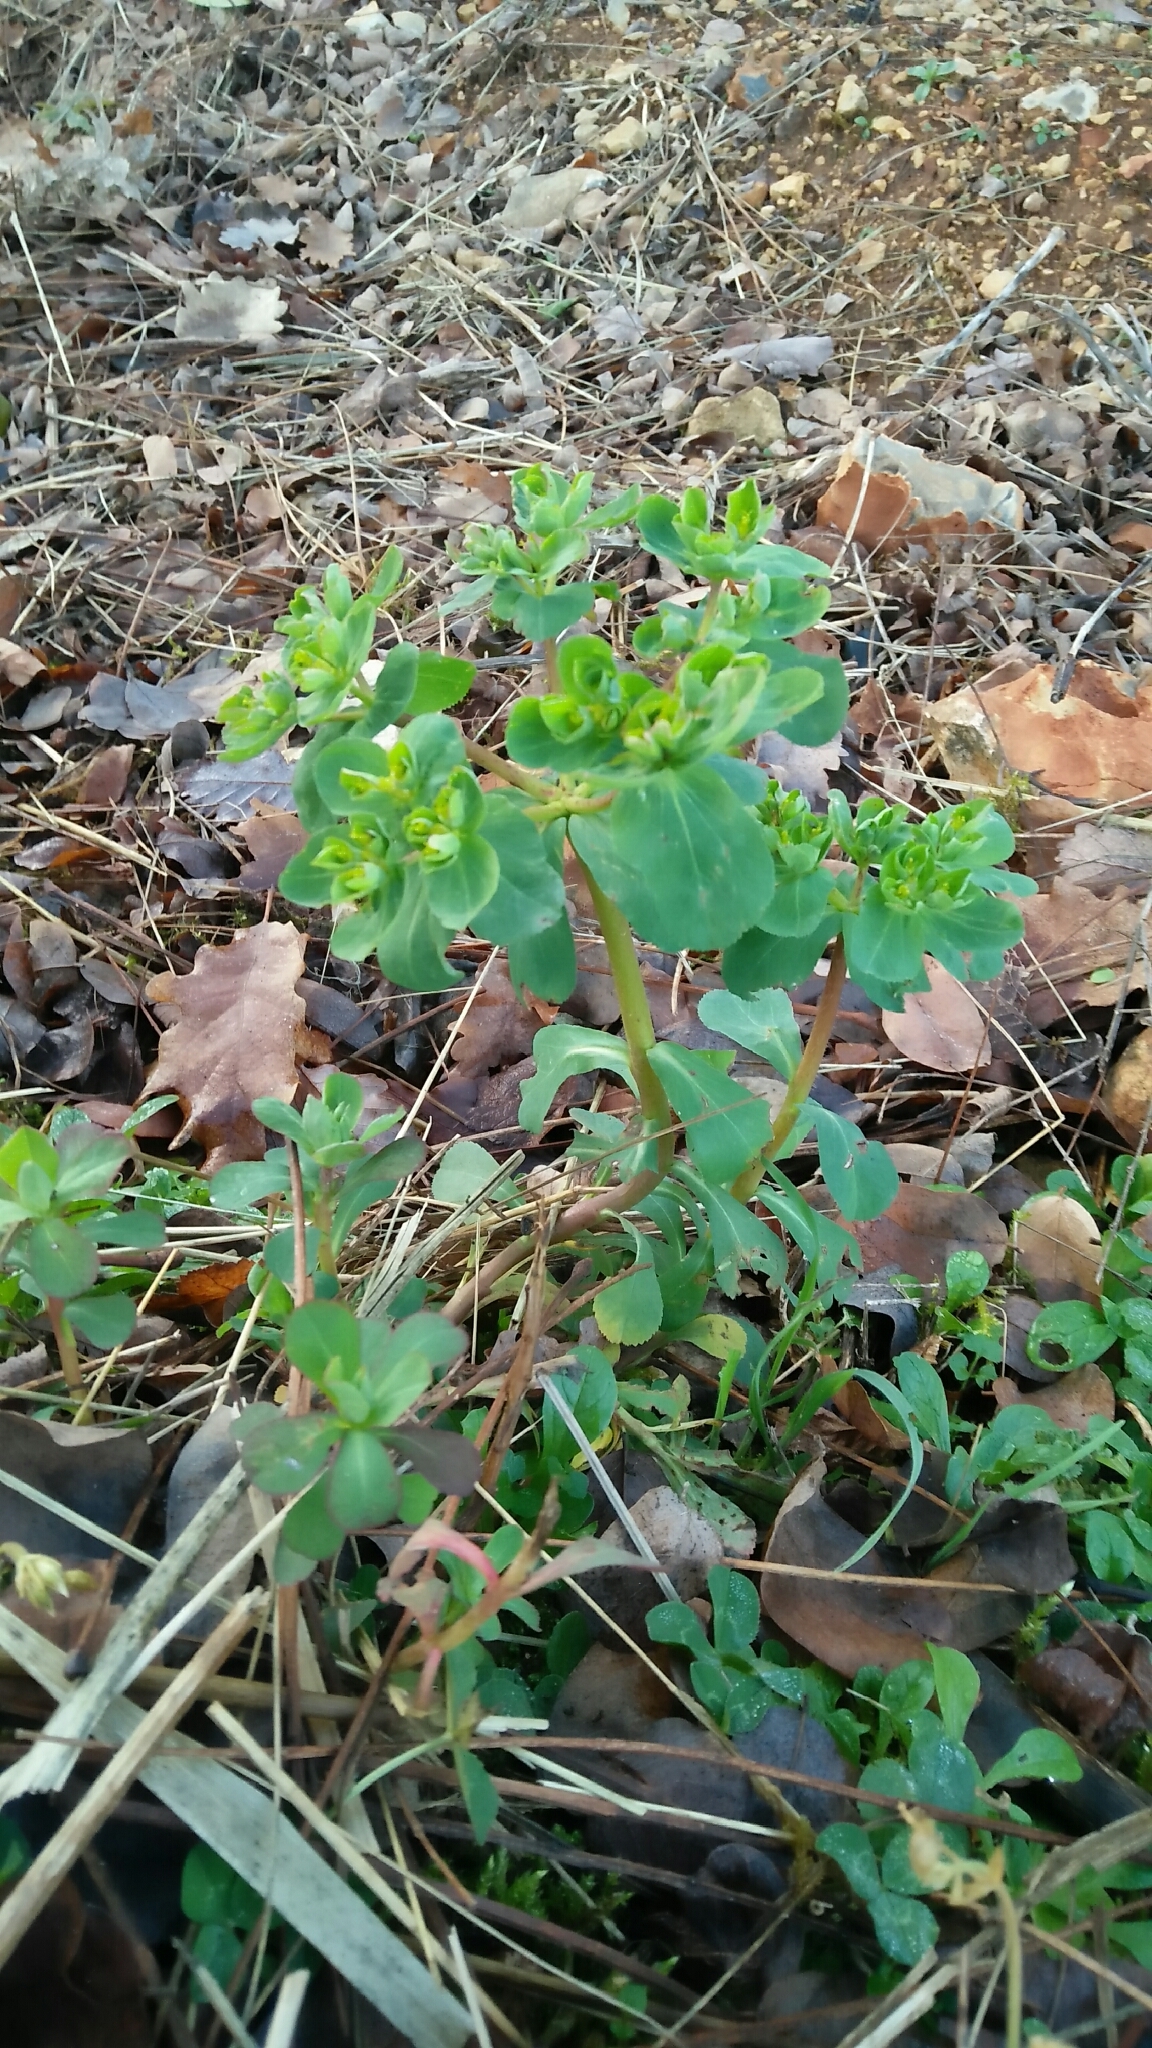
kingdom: Plantae
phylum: Tracheophyta
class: Magnoliopsida
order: Malpighiales
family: Euphorbiaceae
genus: Euphorbia
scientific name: Euphorbia helioscopia
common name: Sun spurge
